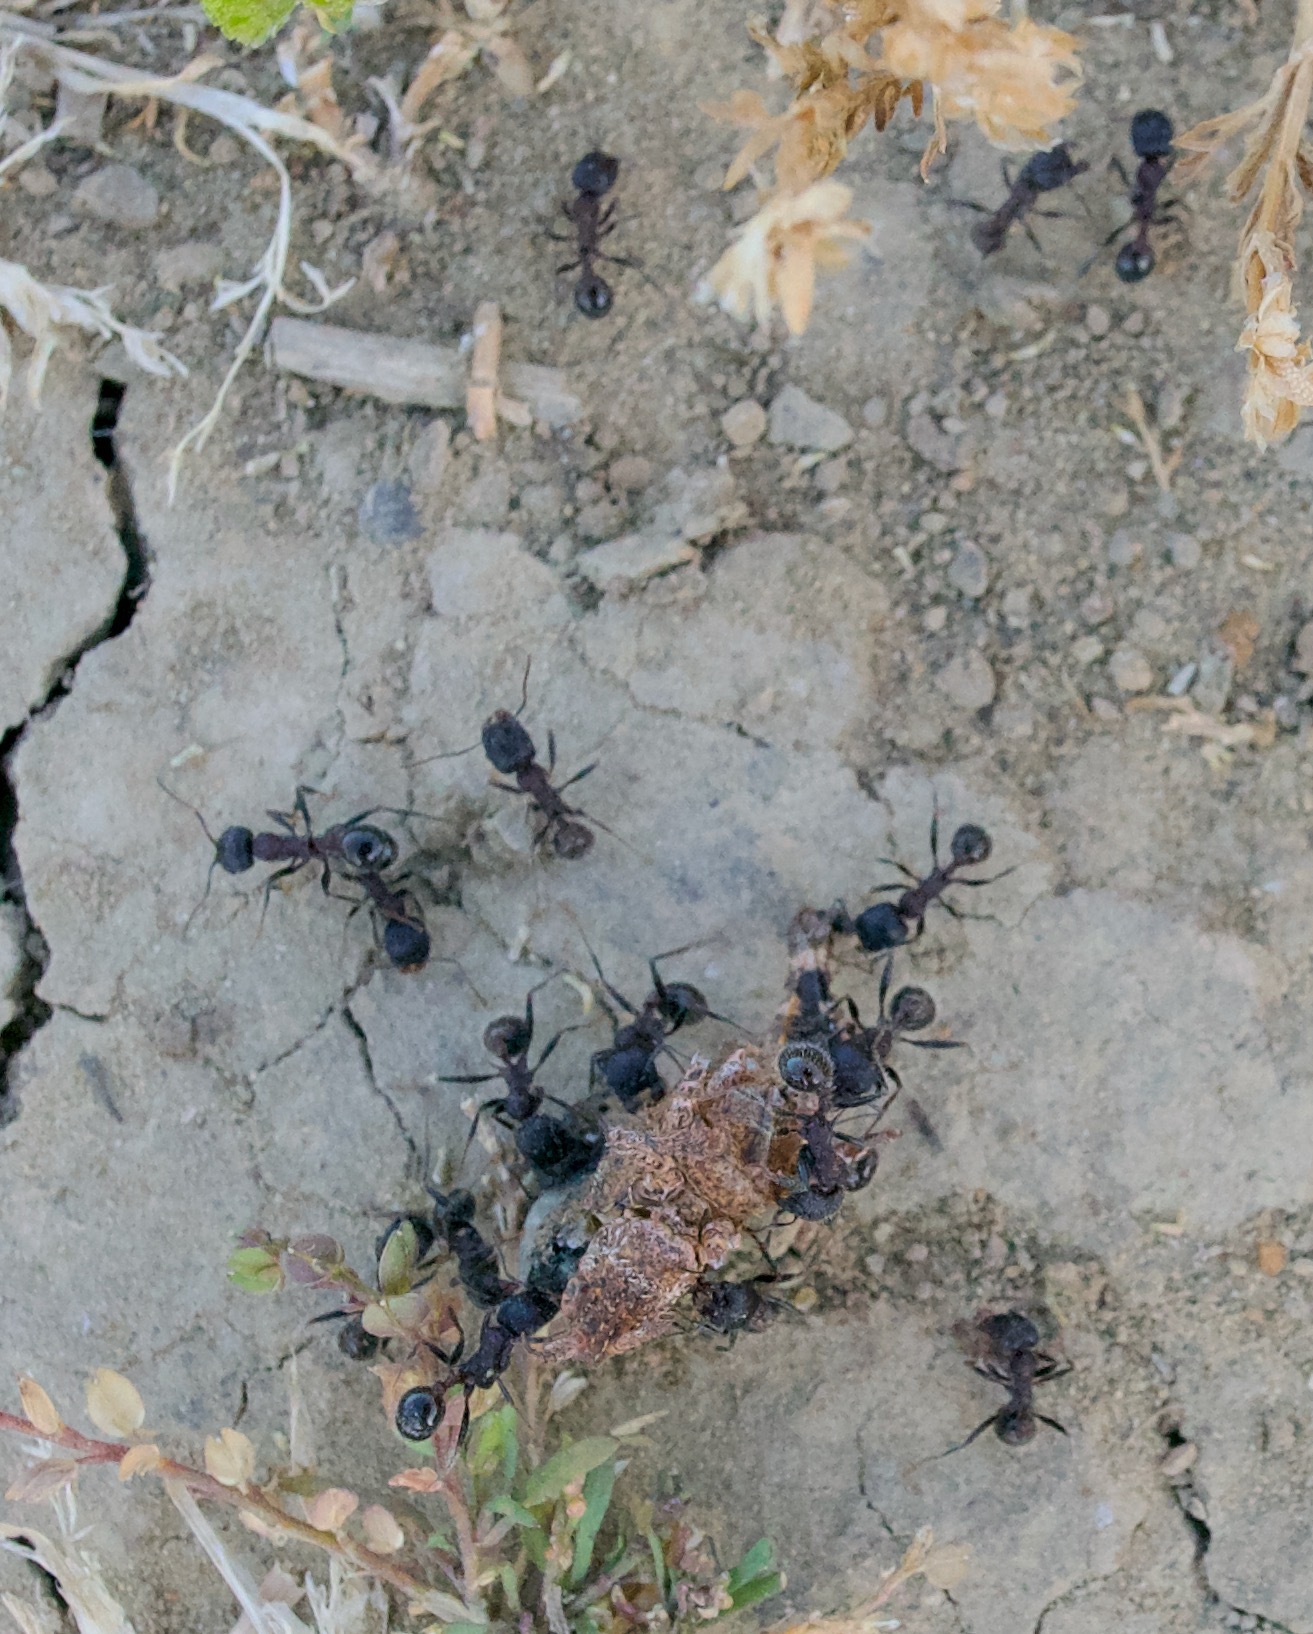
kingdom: Animalia
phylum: Arthropoda
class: Insecta
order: Hymenoptera
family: Formicidae
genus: Veromessor
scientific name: Veromessor andrei
